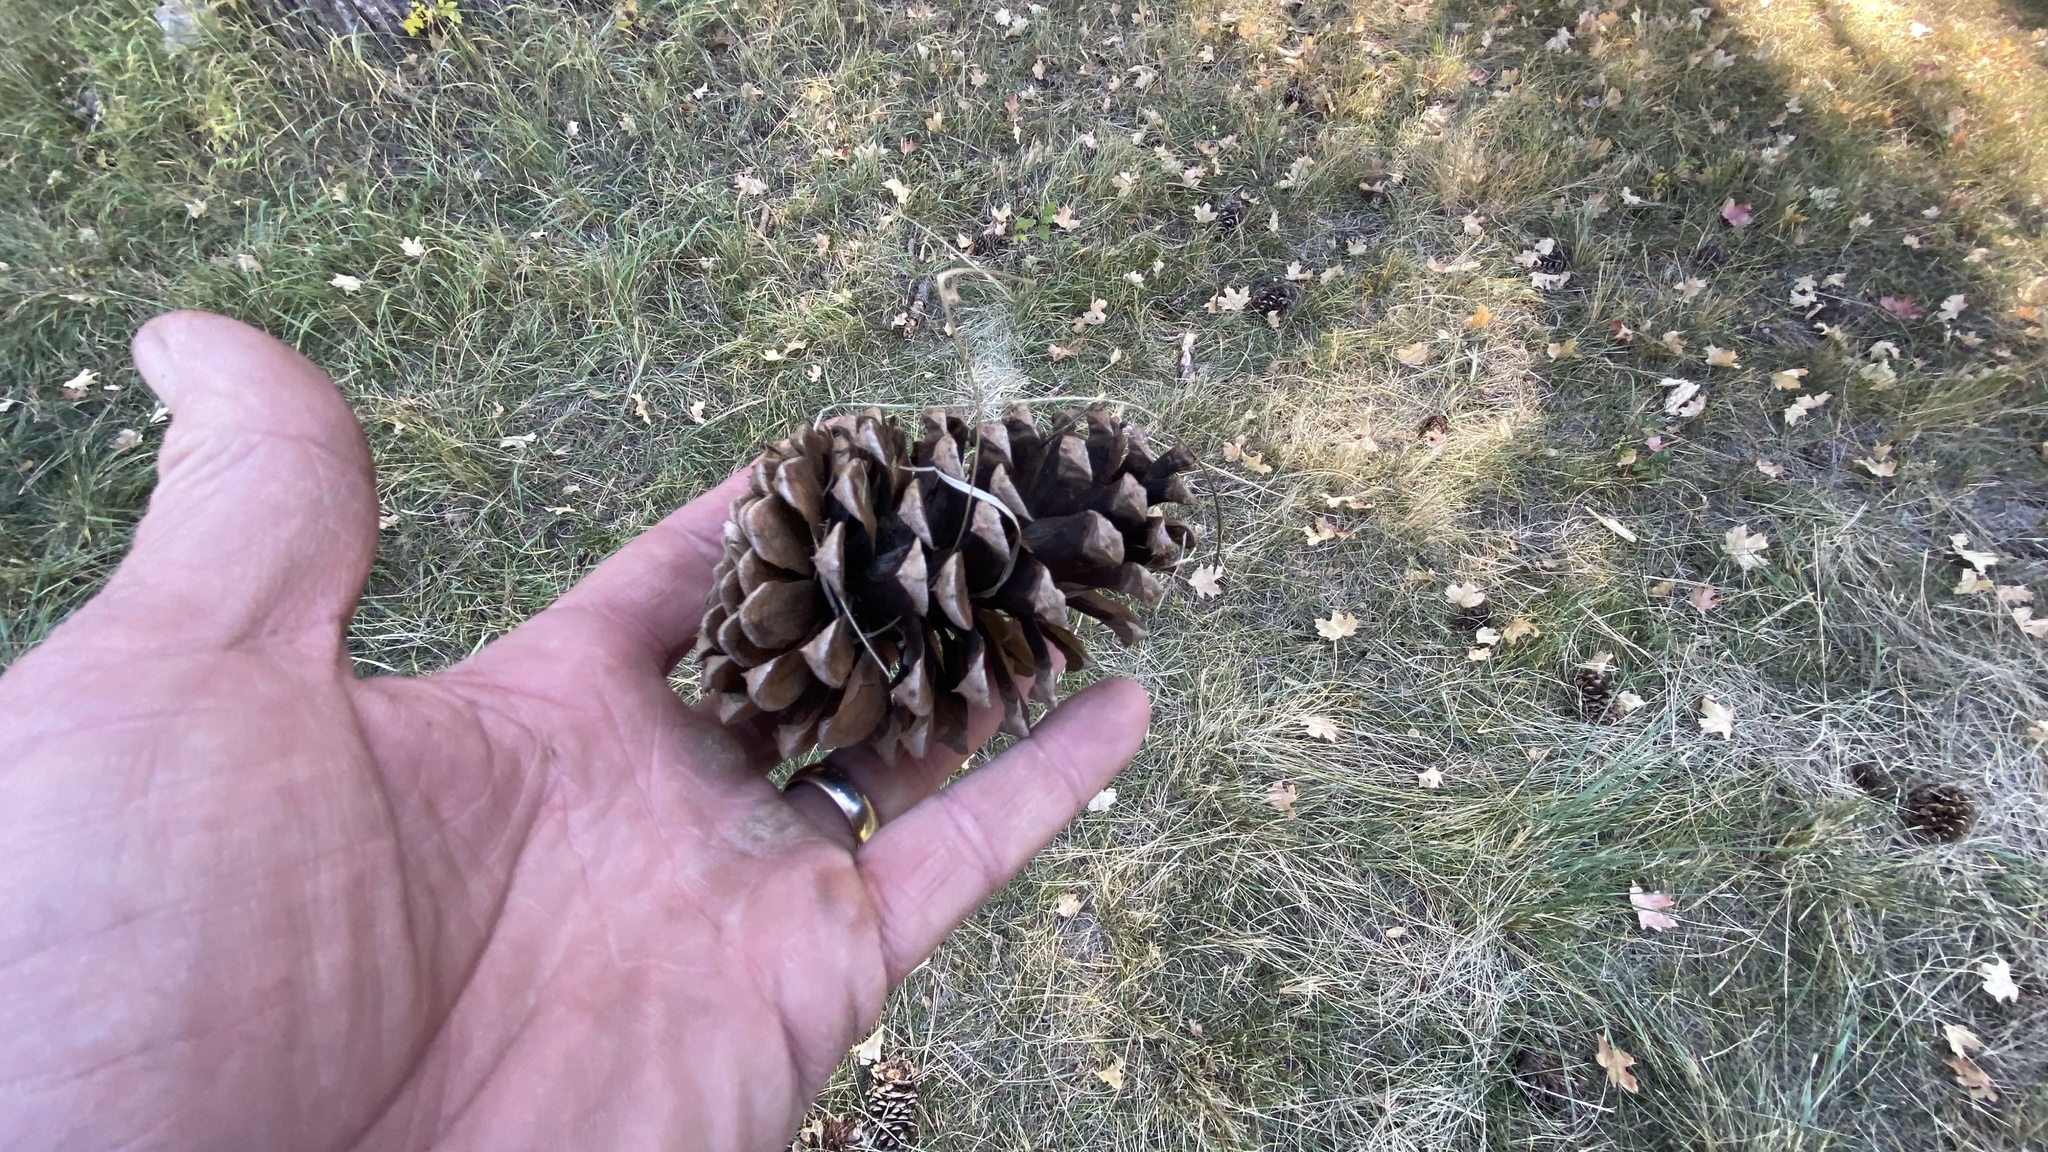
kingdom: Plantae
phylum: Tracheophyta
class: Pinopsida
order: Pinales
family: Pinaceae
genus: Pinus
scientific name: Pinus ponderosa
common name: Western yellow-pine
